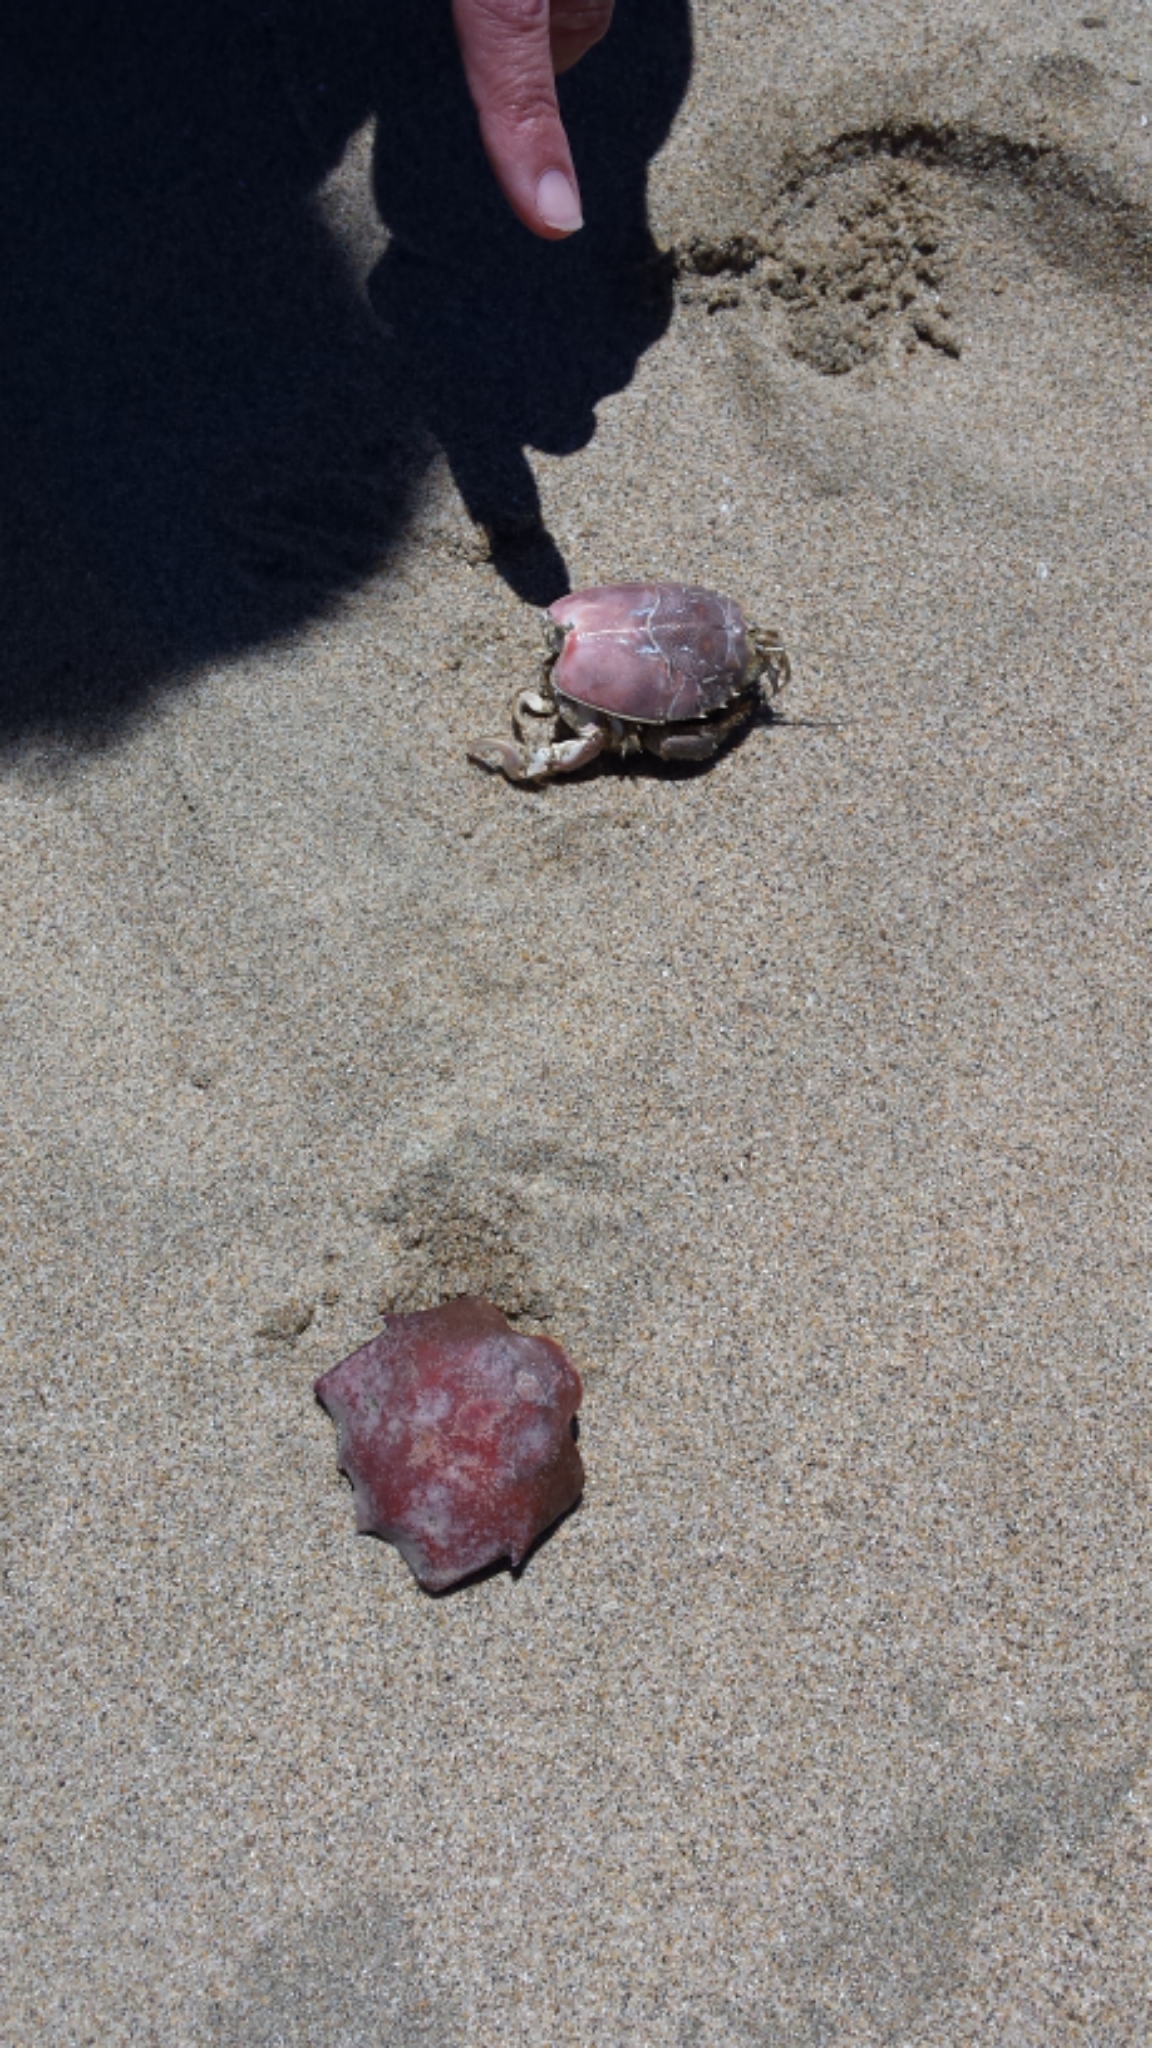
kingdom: Animalia
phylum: Arthropoda
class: Malacostraca
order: Decapoda
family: Blepharipodidae
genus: Blepharipoda
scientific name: Blepharipoda occidentalis
